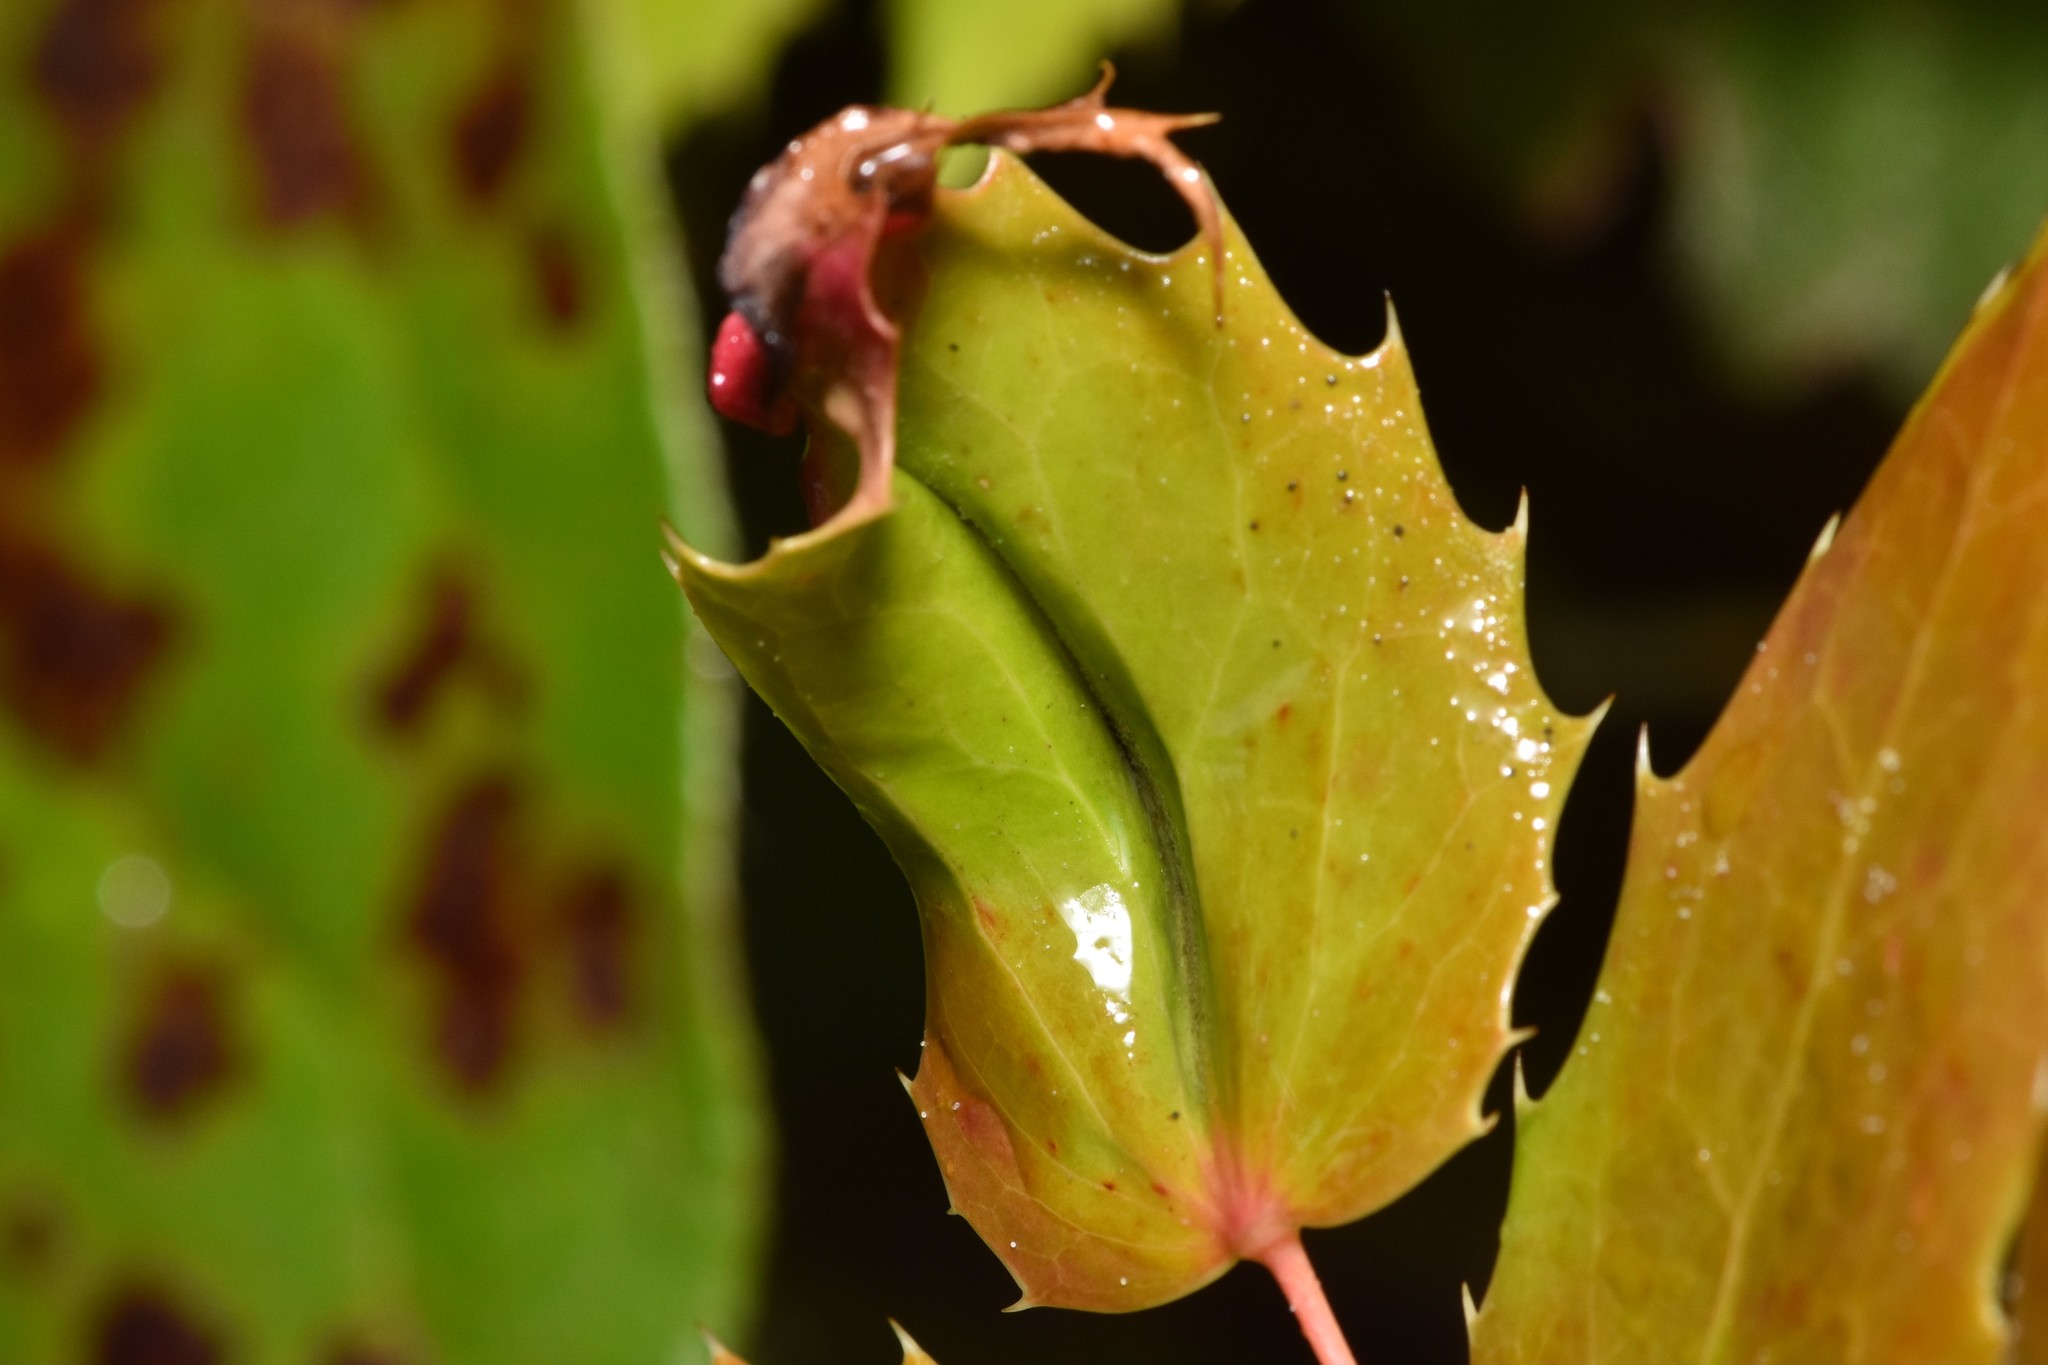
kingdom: Animalia
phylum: Arthropoda
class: Arachnida
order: Trombidiformes
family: Eriophyidae
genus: Aceria
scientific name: Aceria caliberberis
